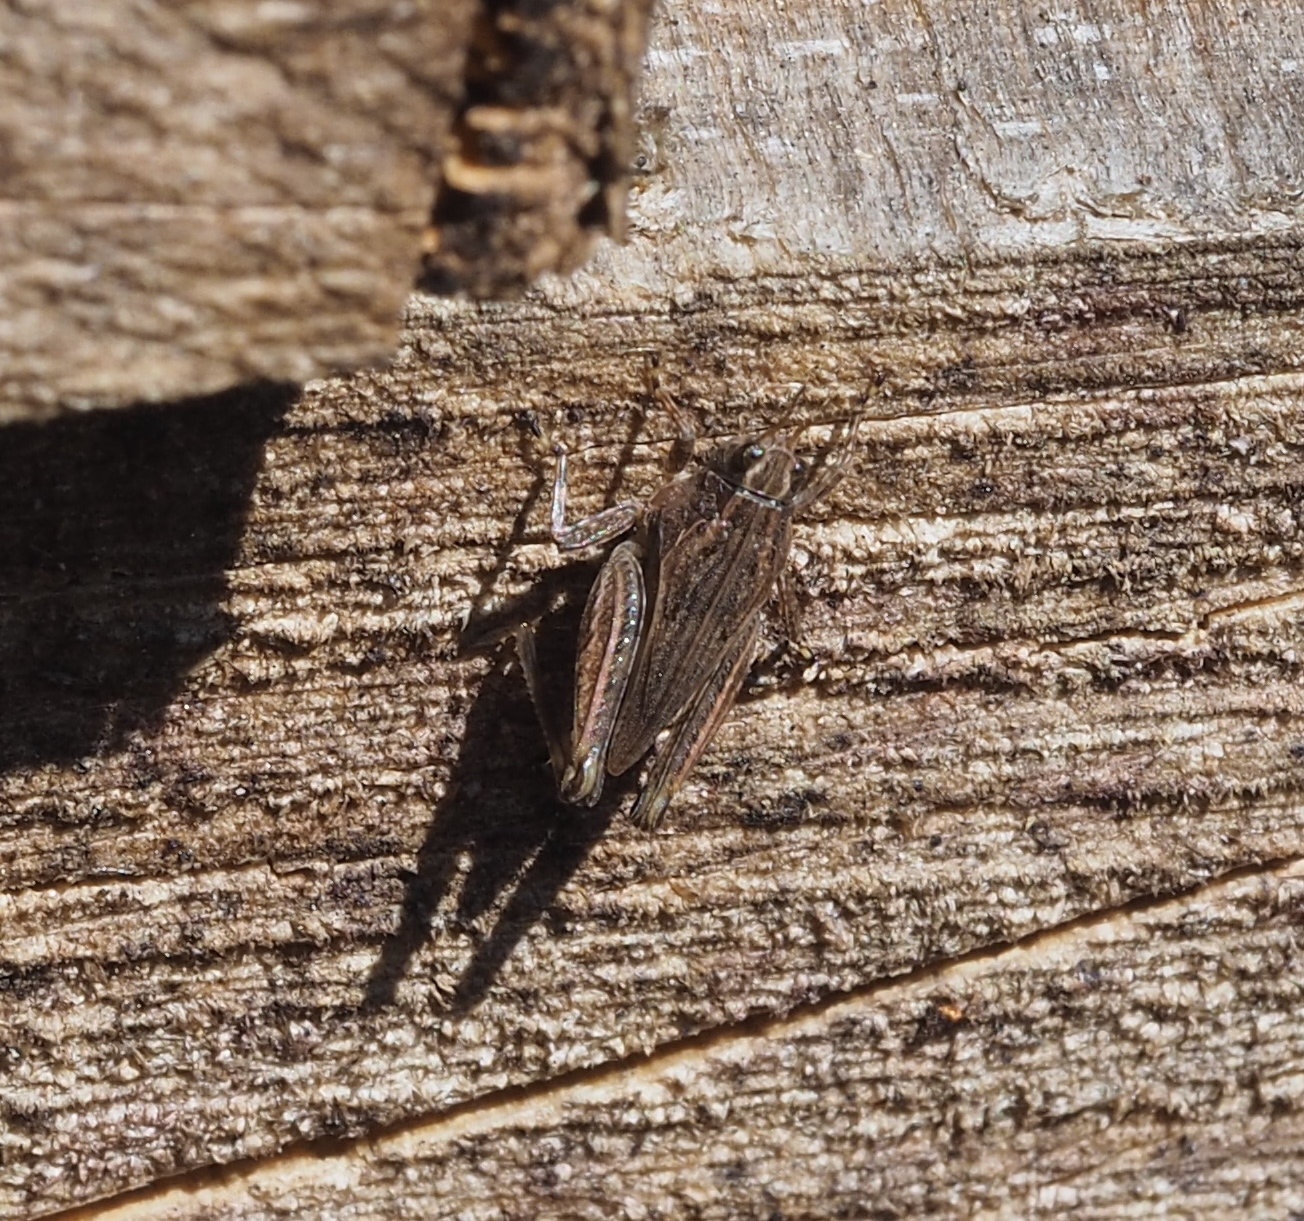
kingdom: Animalia
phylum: Arthropoda
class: Insecta
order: Orthoptera
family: Tetrigidae
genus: Tetrix
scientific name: Tetrix subulata
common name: Slender ground-hopper
